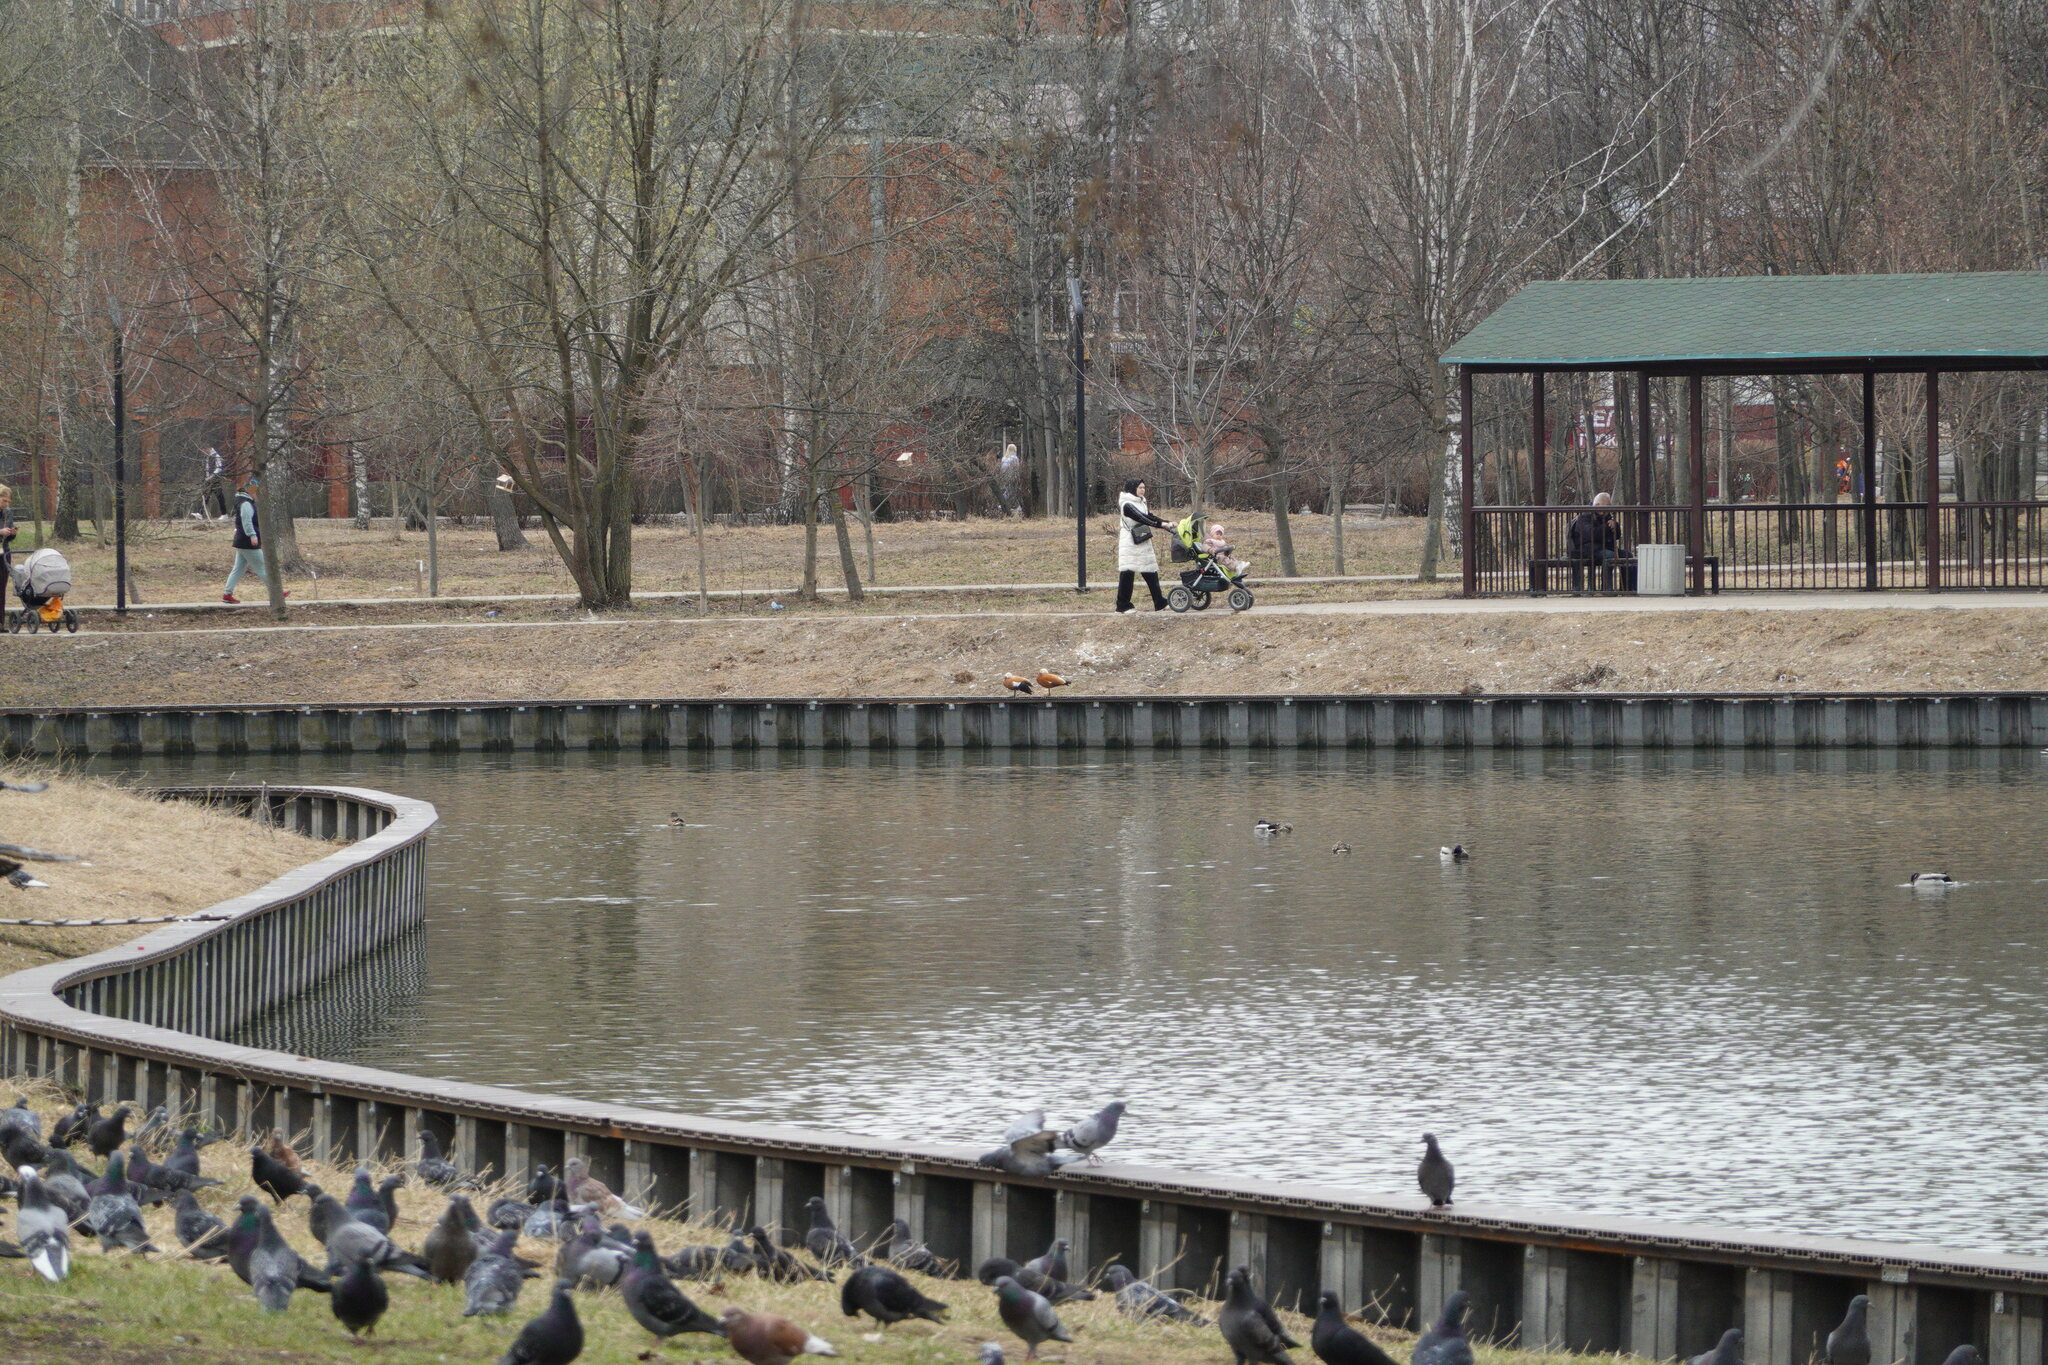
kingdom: Animalia
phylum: Chordata
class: Aves
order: Anseriformes
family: Anatidae
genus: Tadorna
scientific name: Tadorna ferruginea
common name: Ruddy shelduck
